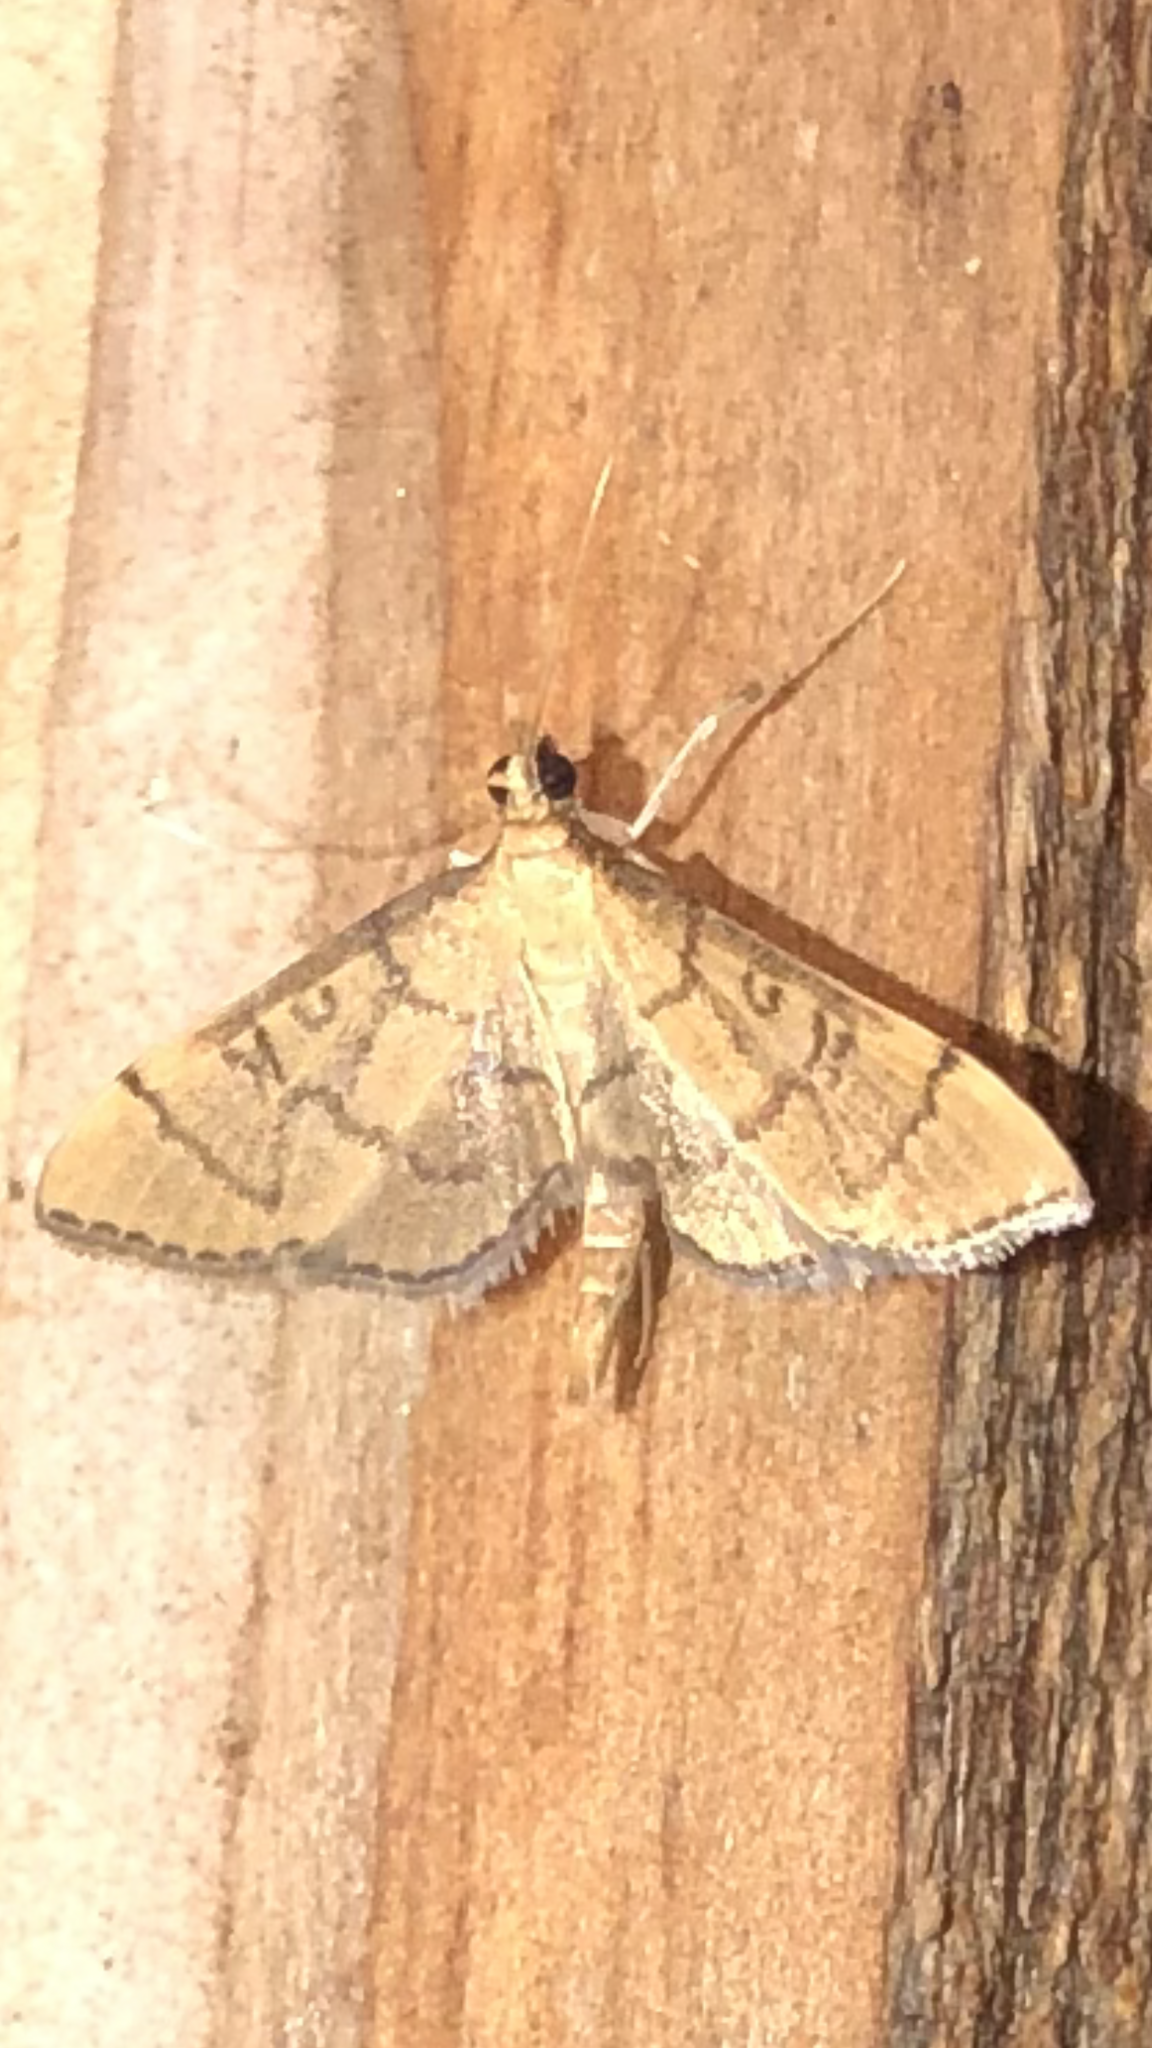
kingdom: Animalia
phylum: Arthropoda
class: Insecta
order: Lepidoptera
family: Crambidae
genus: Lamprosema
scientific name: Lamprosema Blepharomastix ranalis
